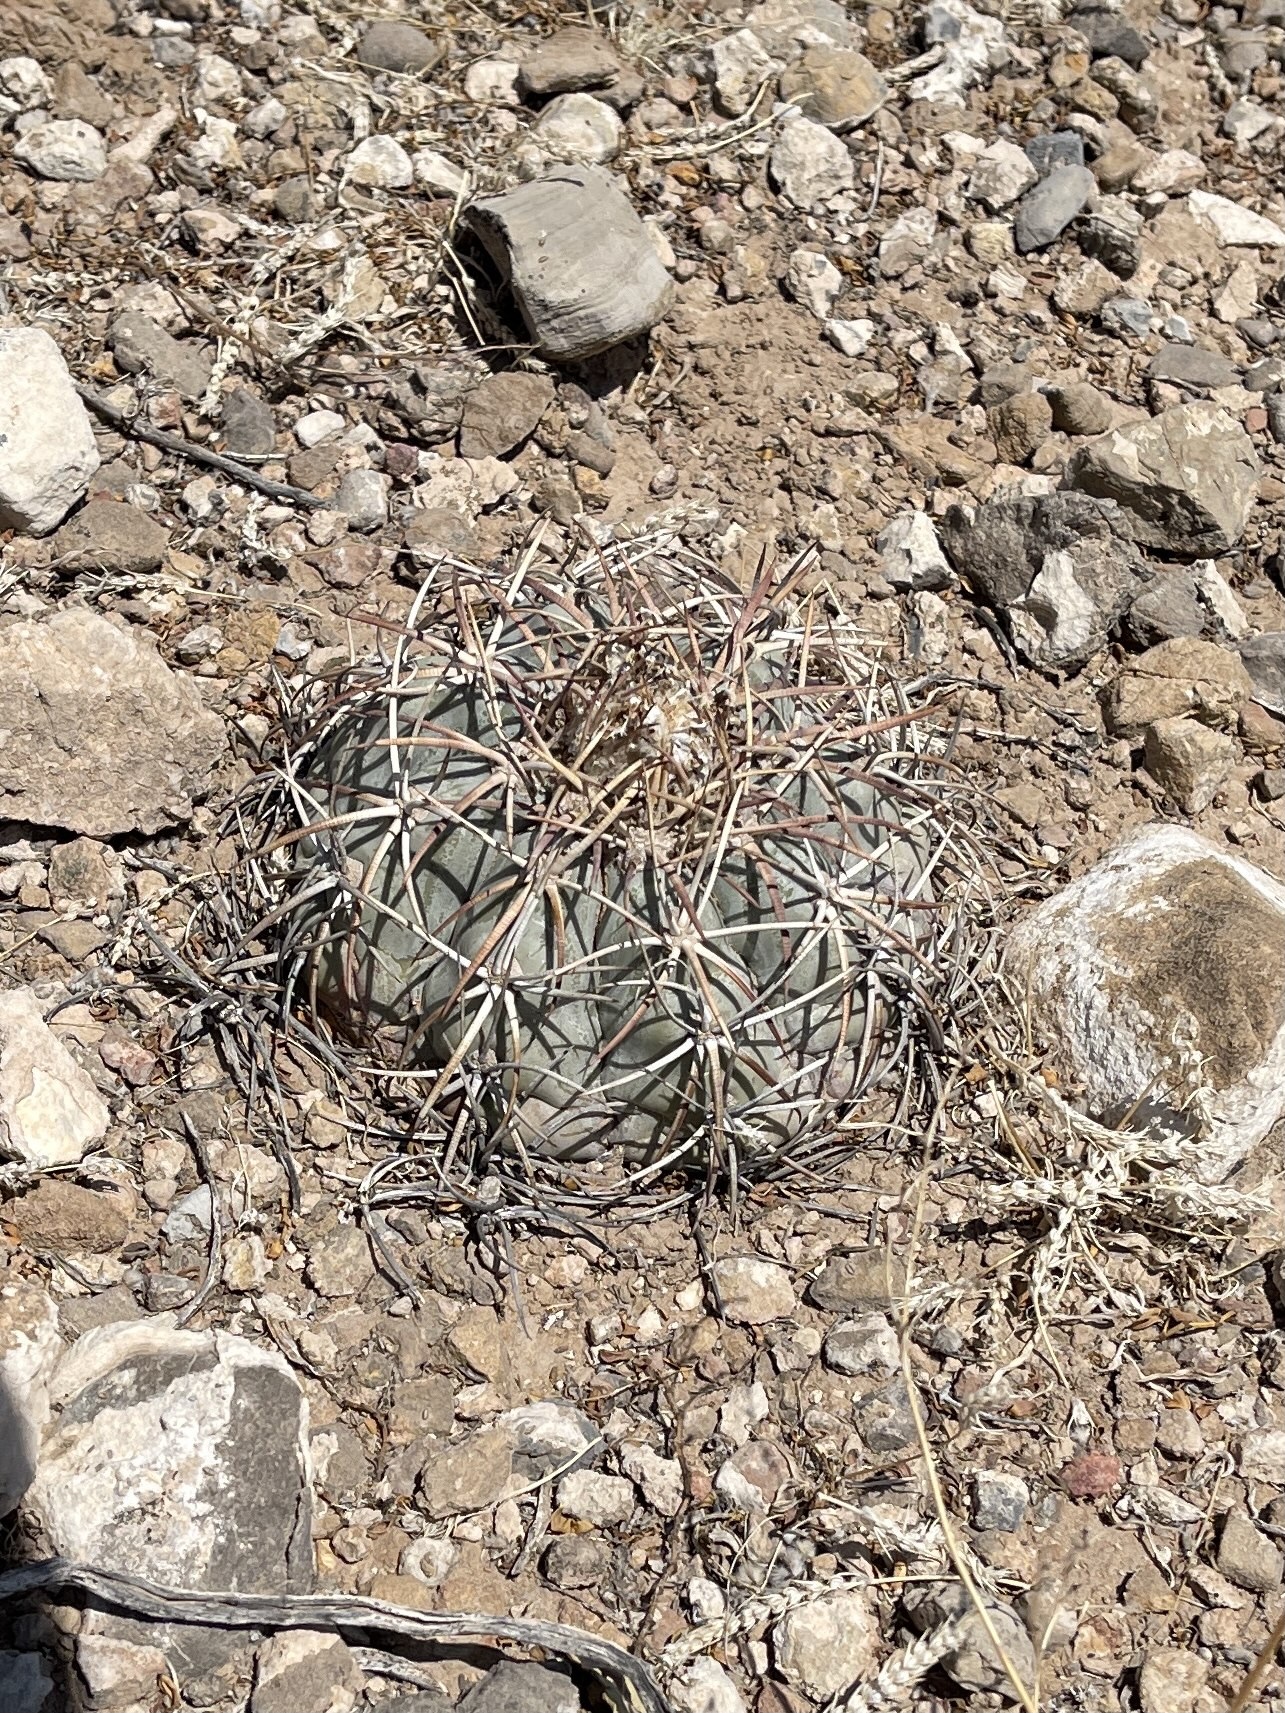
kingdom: Plantae
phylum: Tracheophyta
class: Magnoliopsida
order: Caryophyllales
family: Cactaceae
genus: Echinocactus
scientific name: Echinocactus horizonthalonius
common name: Devilshead
